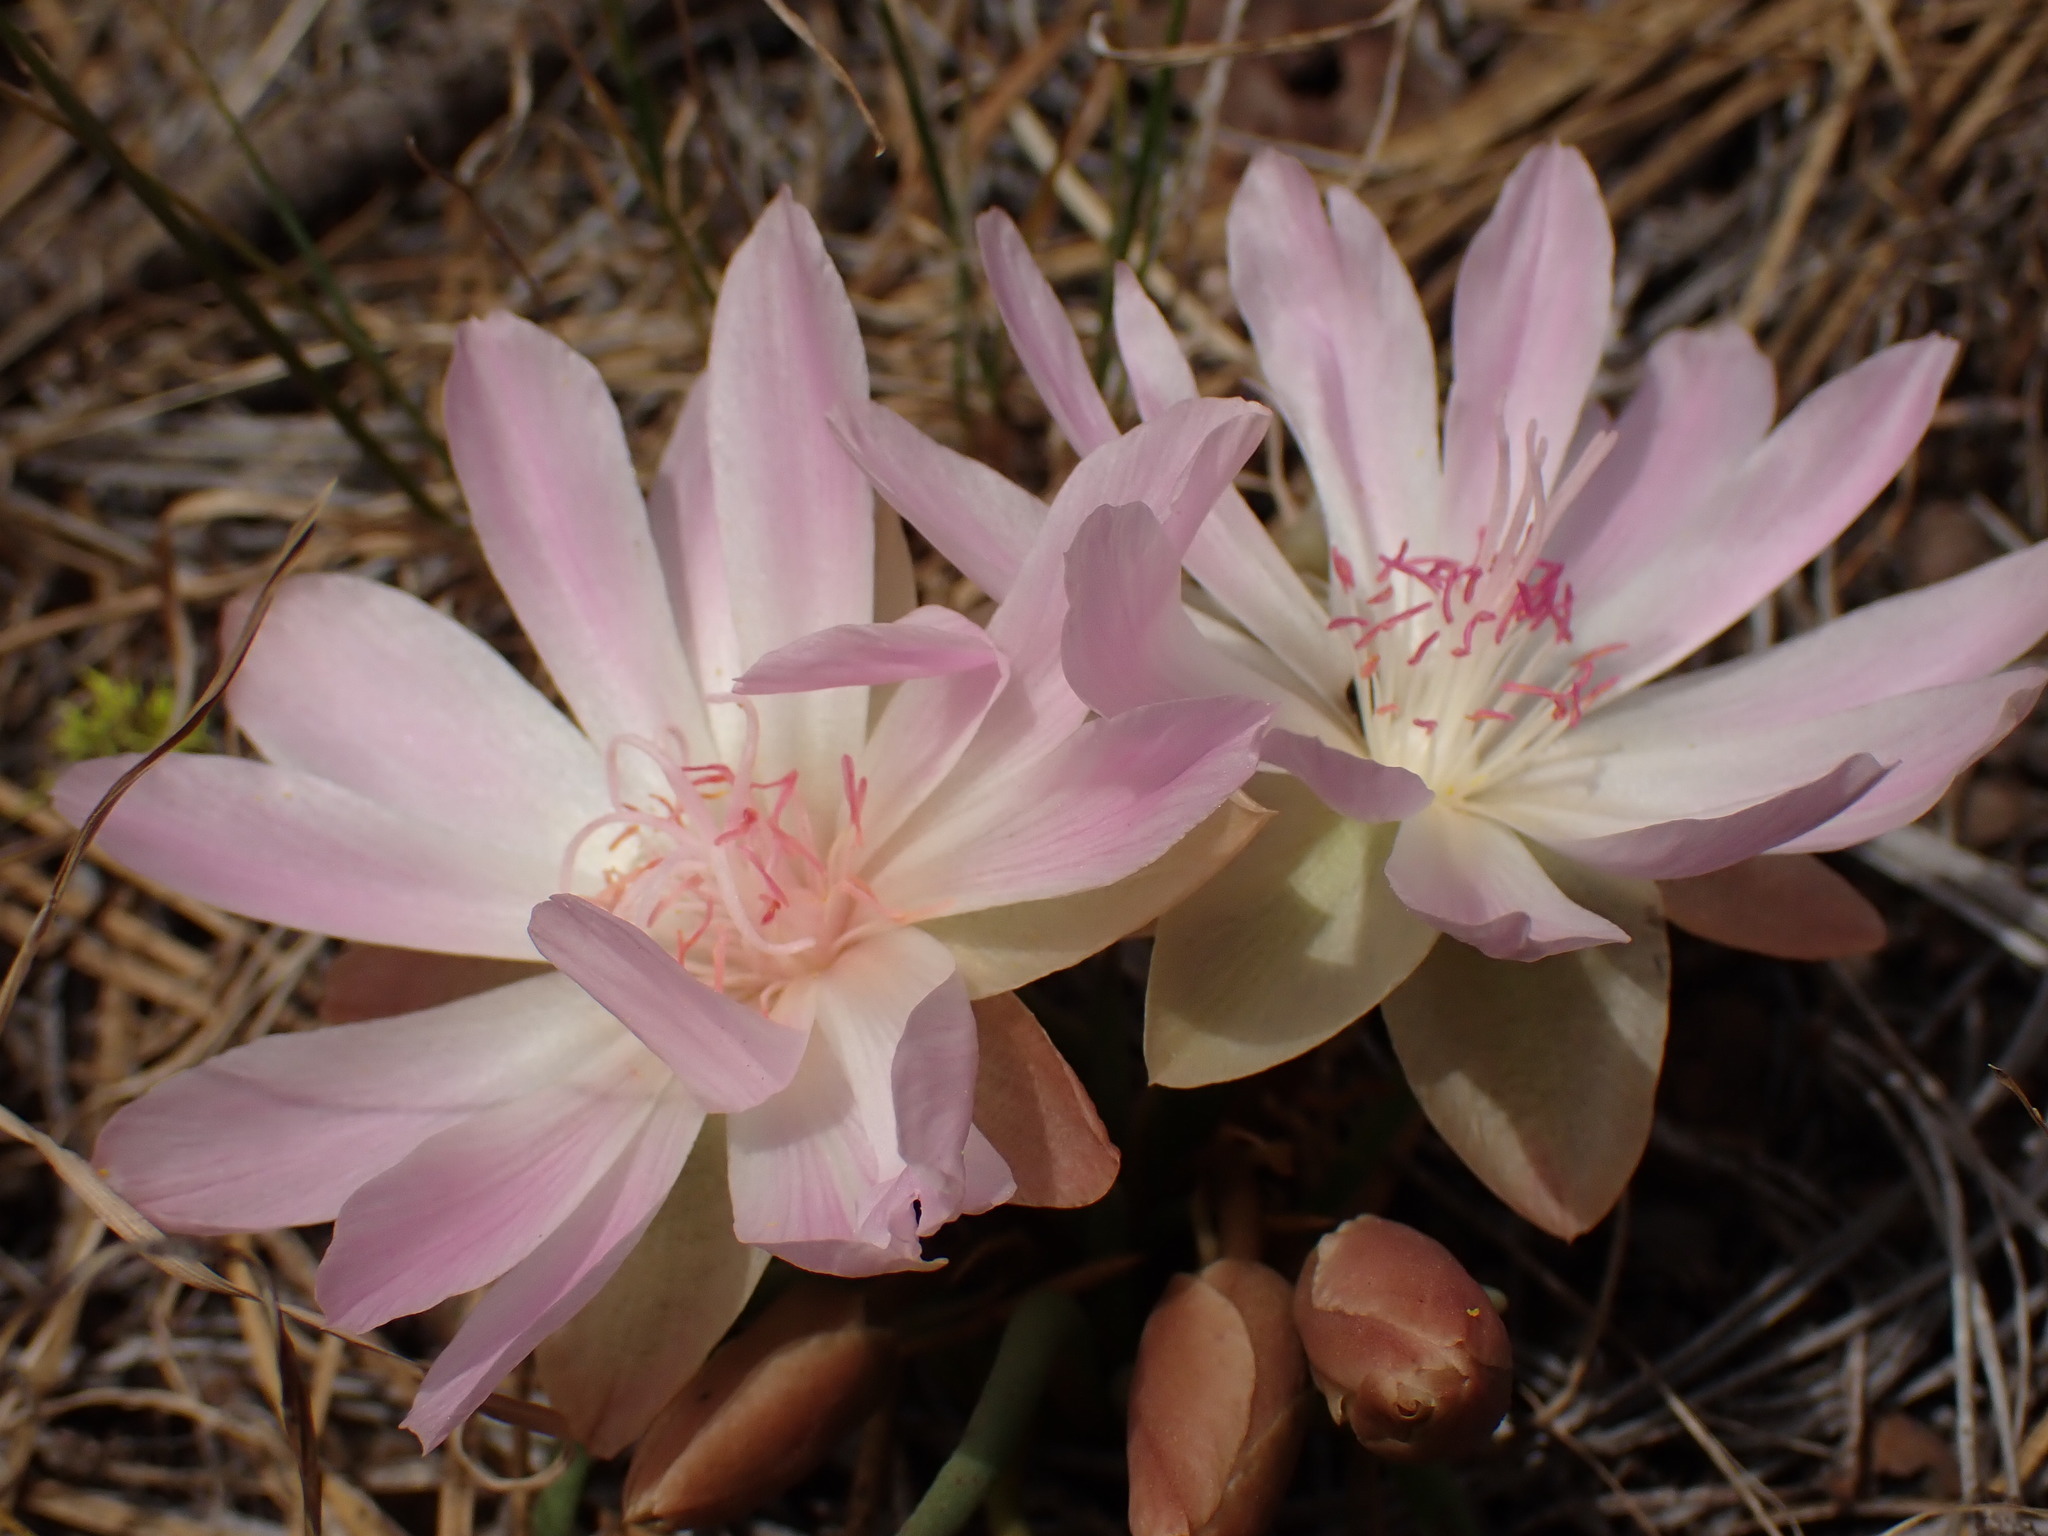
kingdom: Plantae
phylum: Tracheophyta
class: Magnoliopsida
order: Caryophyllales
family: Montiaceae
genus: Lewisia
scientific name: Lewisia rediviva
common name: Bitter-root
